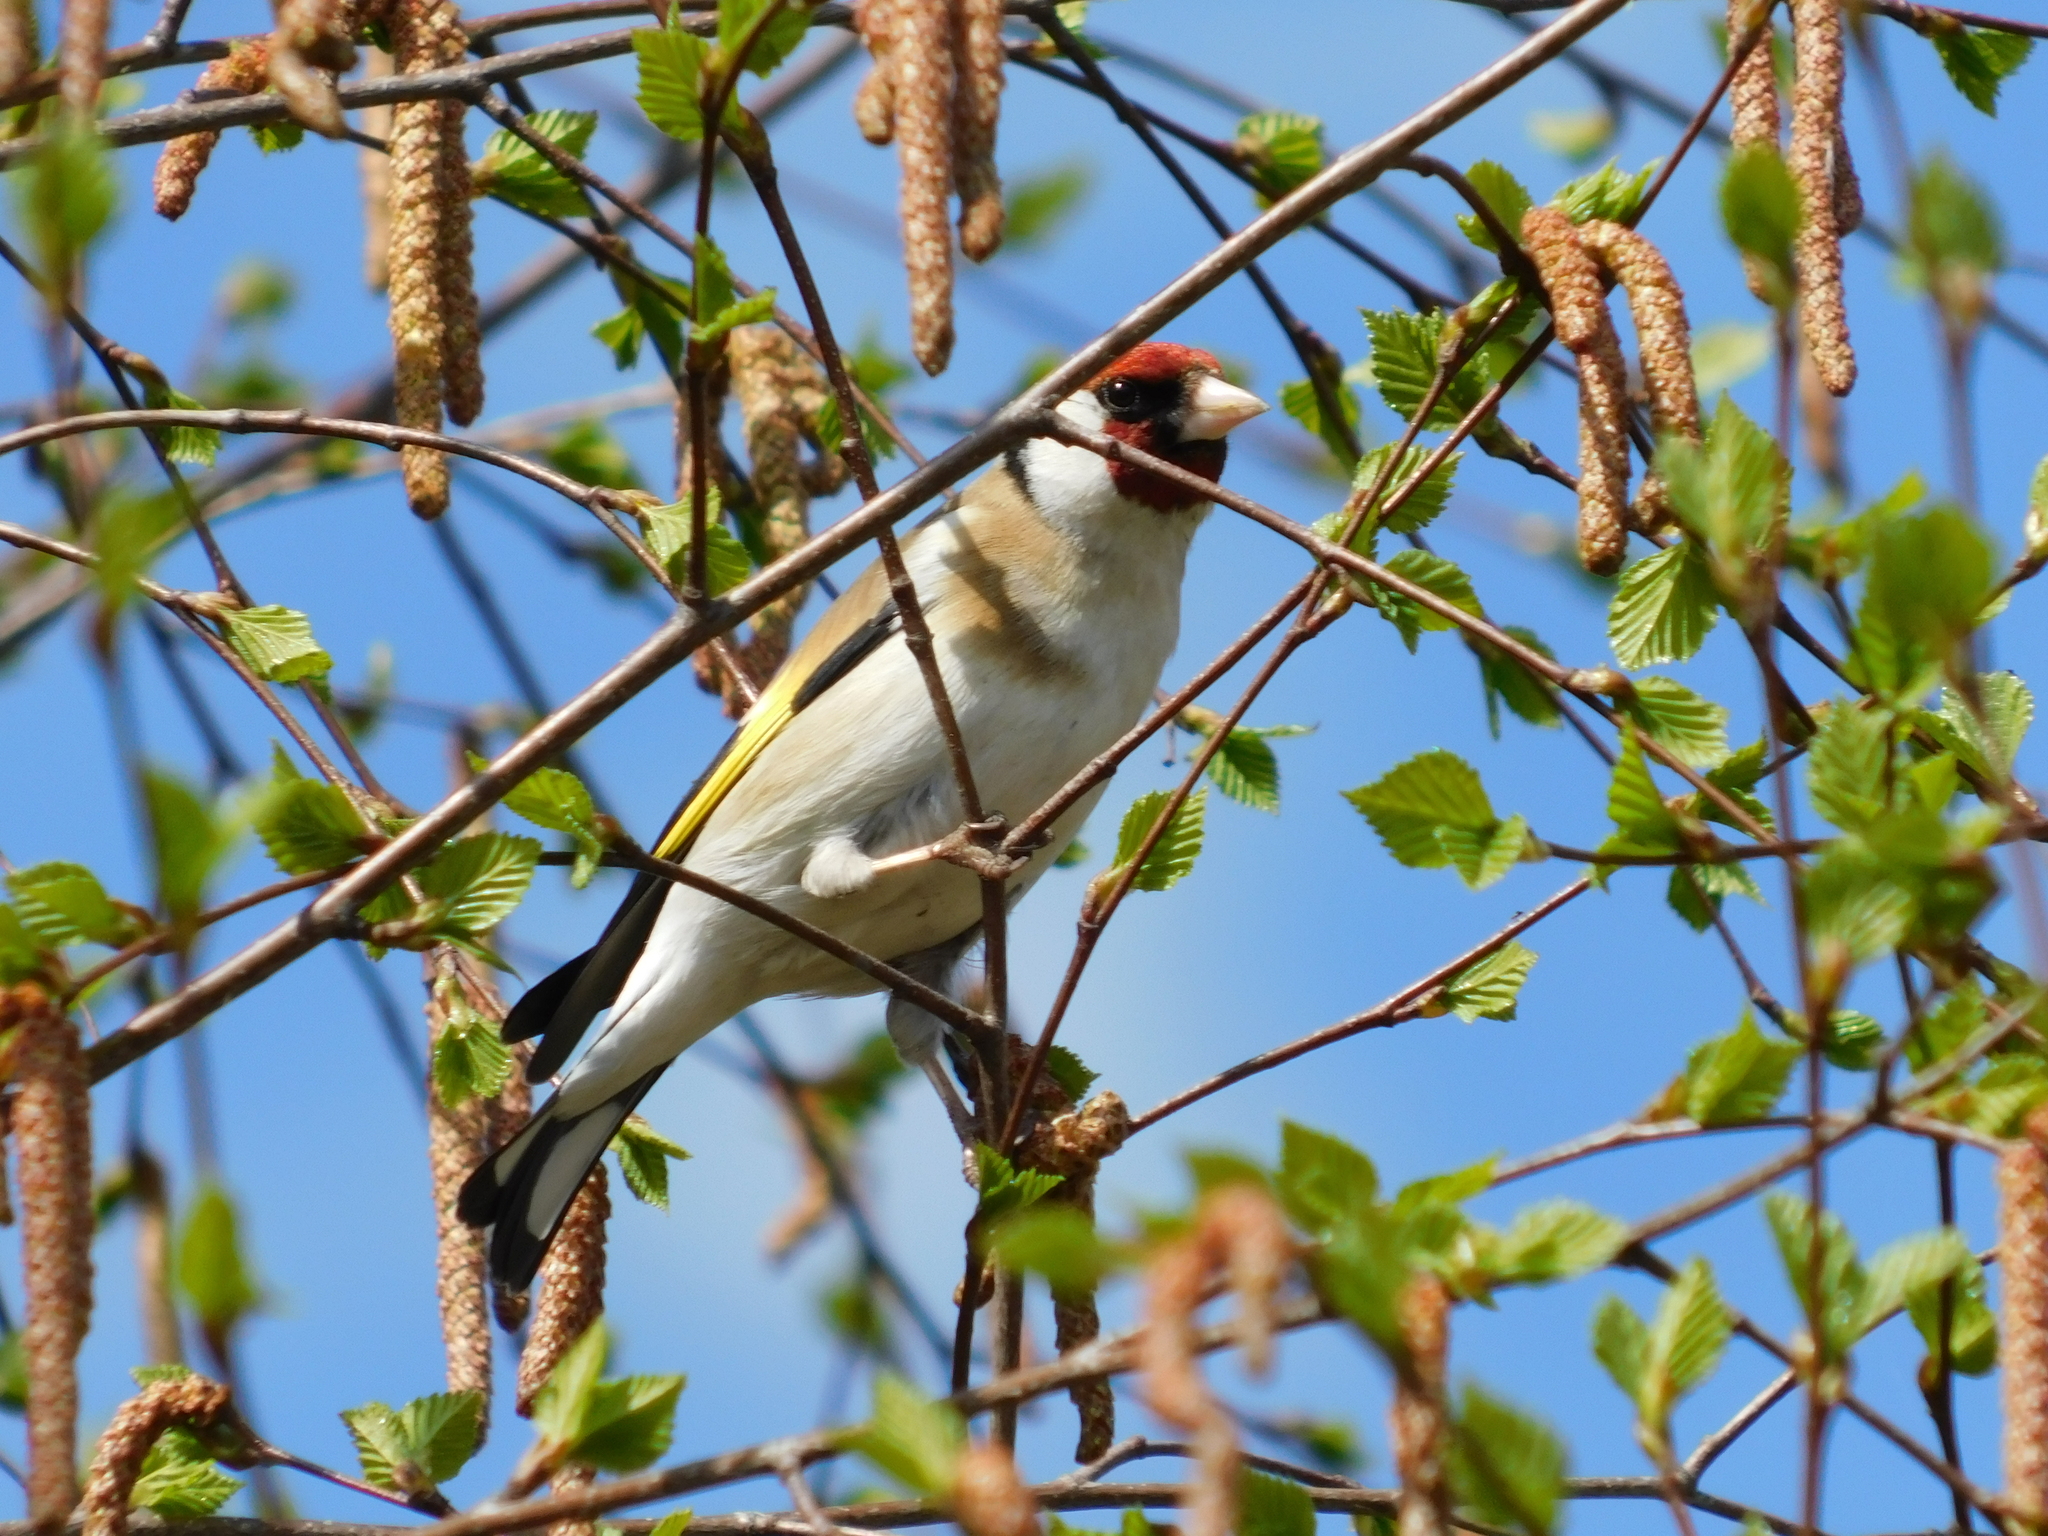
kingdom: Animalia
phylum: Chordata
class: Aves
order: Passeriformes
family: Fringillidae
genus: Carduelis
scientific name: Carduelis carduelis
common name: European goldfinch
